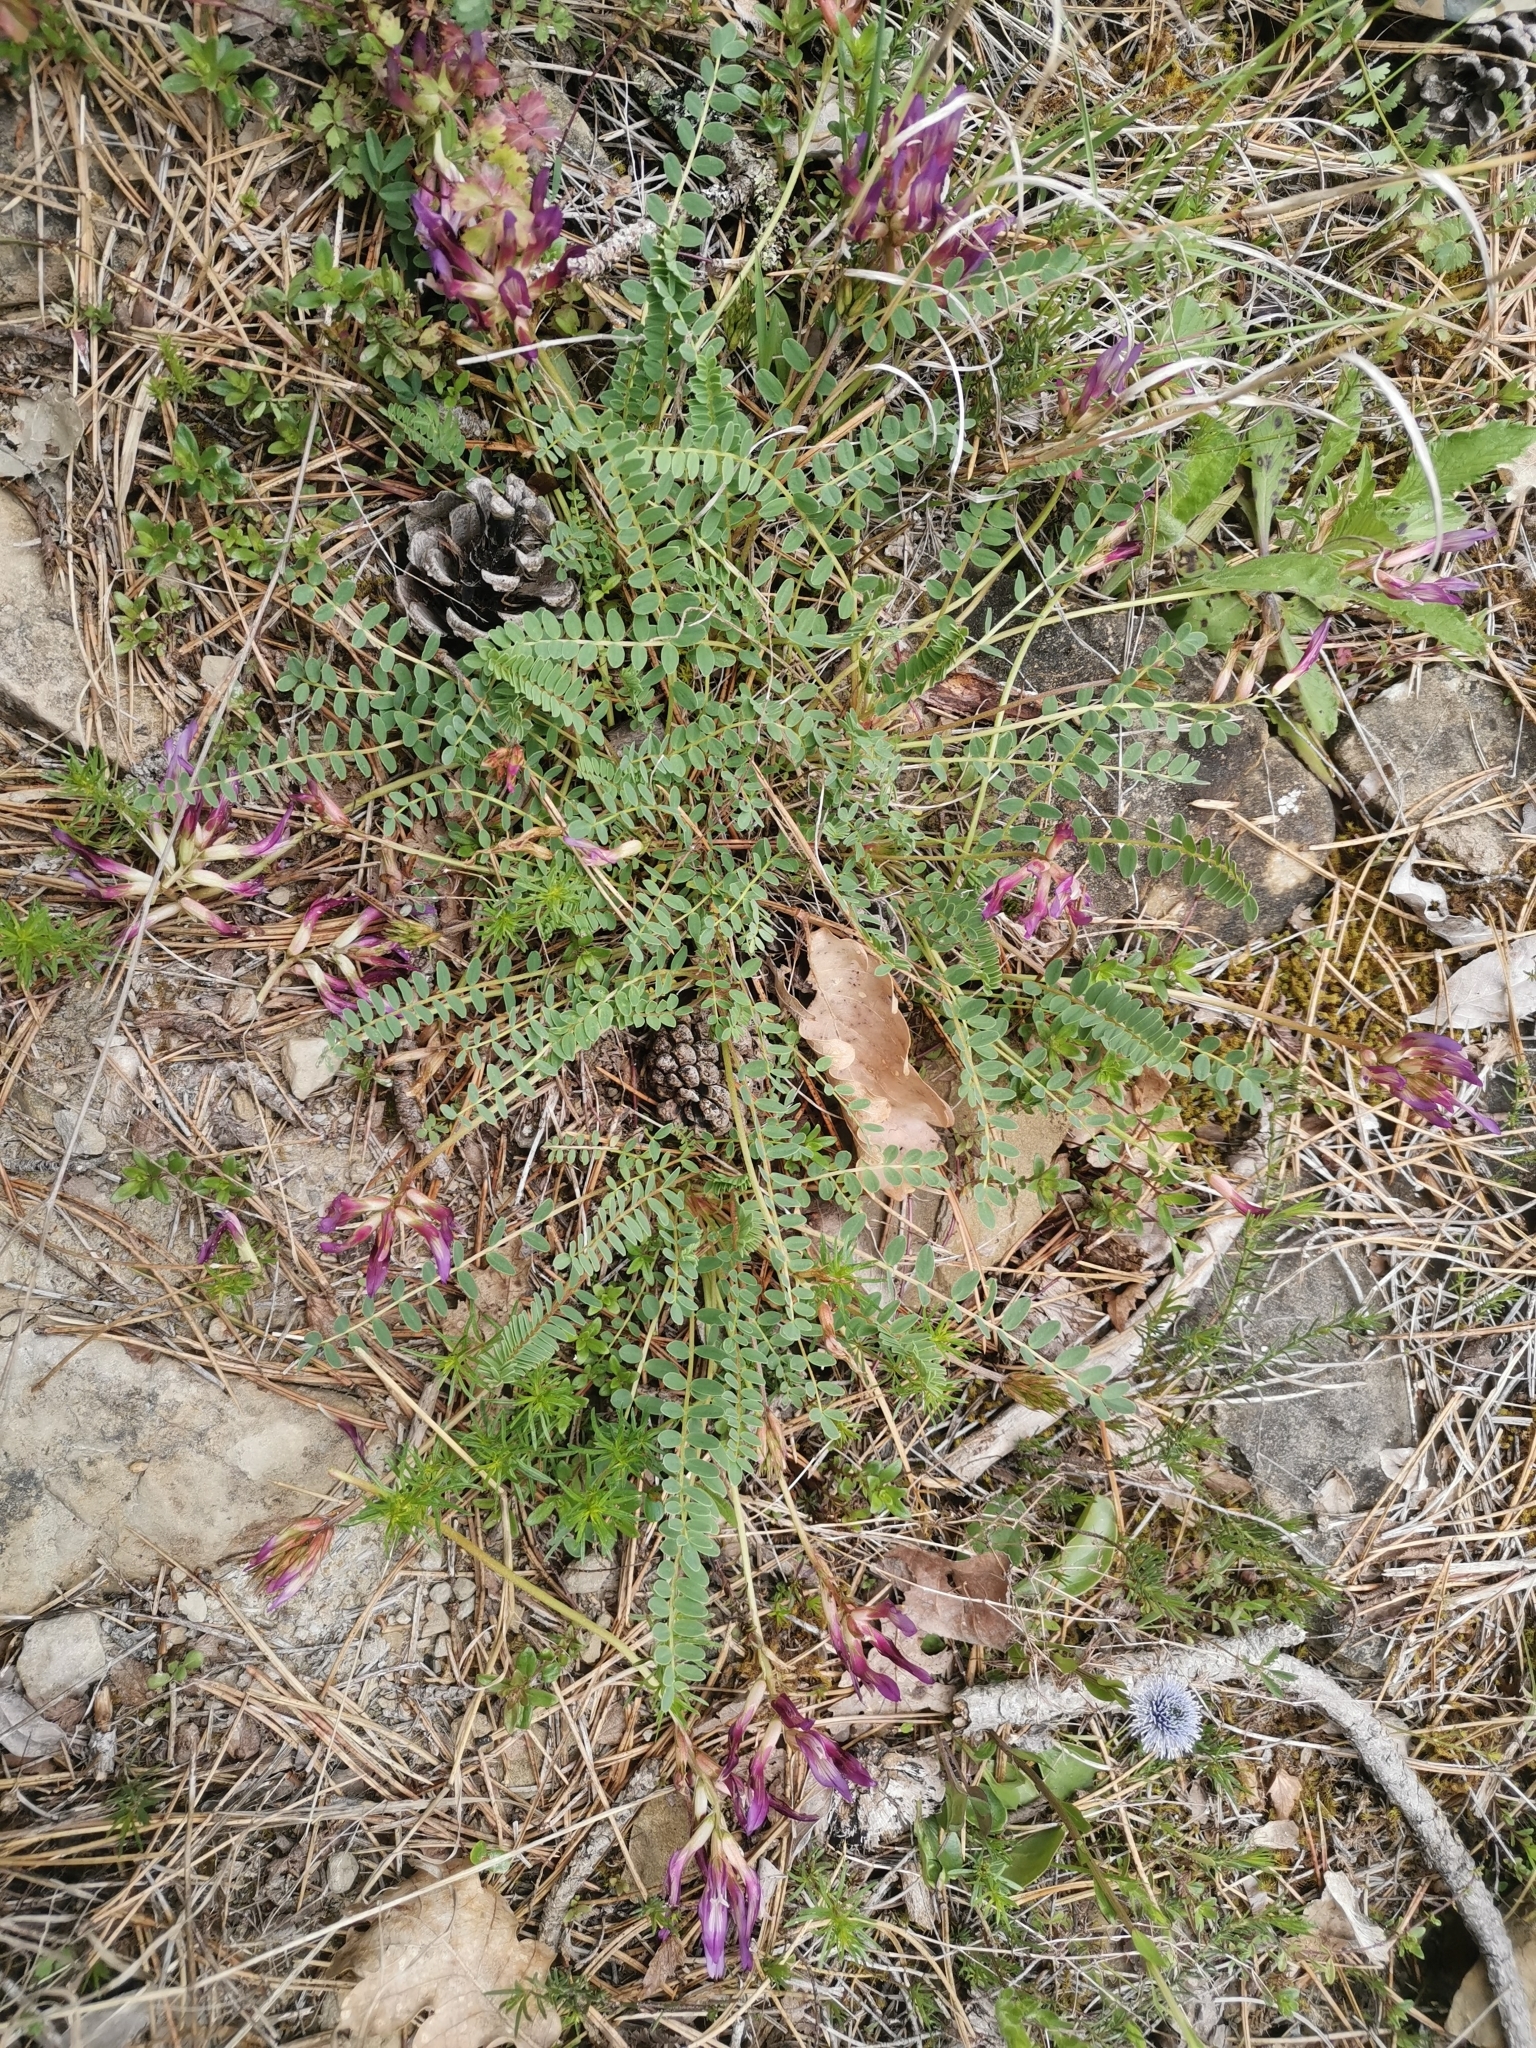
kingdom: Plantae
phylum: Tracheophyta
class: Magnoliopsida
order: Fabales
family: Fabaceae
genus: Astragalus
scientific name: Astragalus monspessulanus
